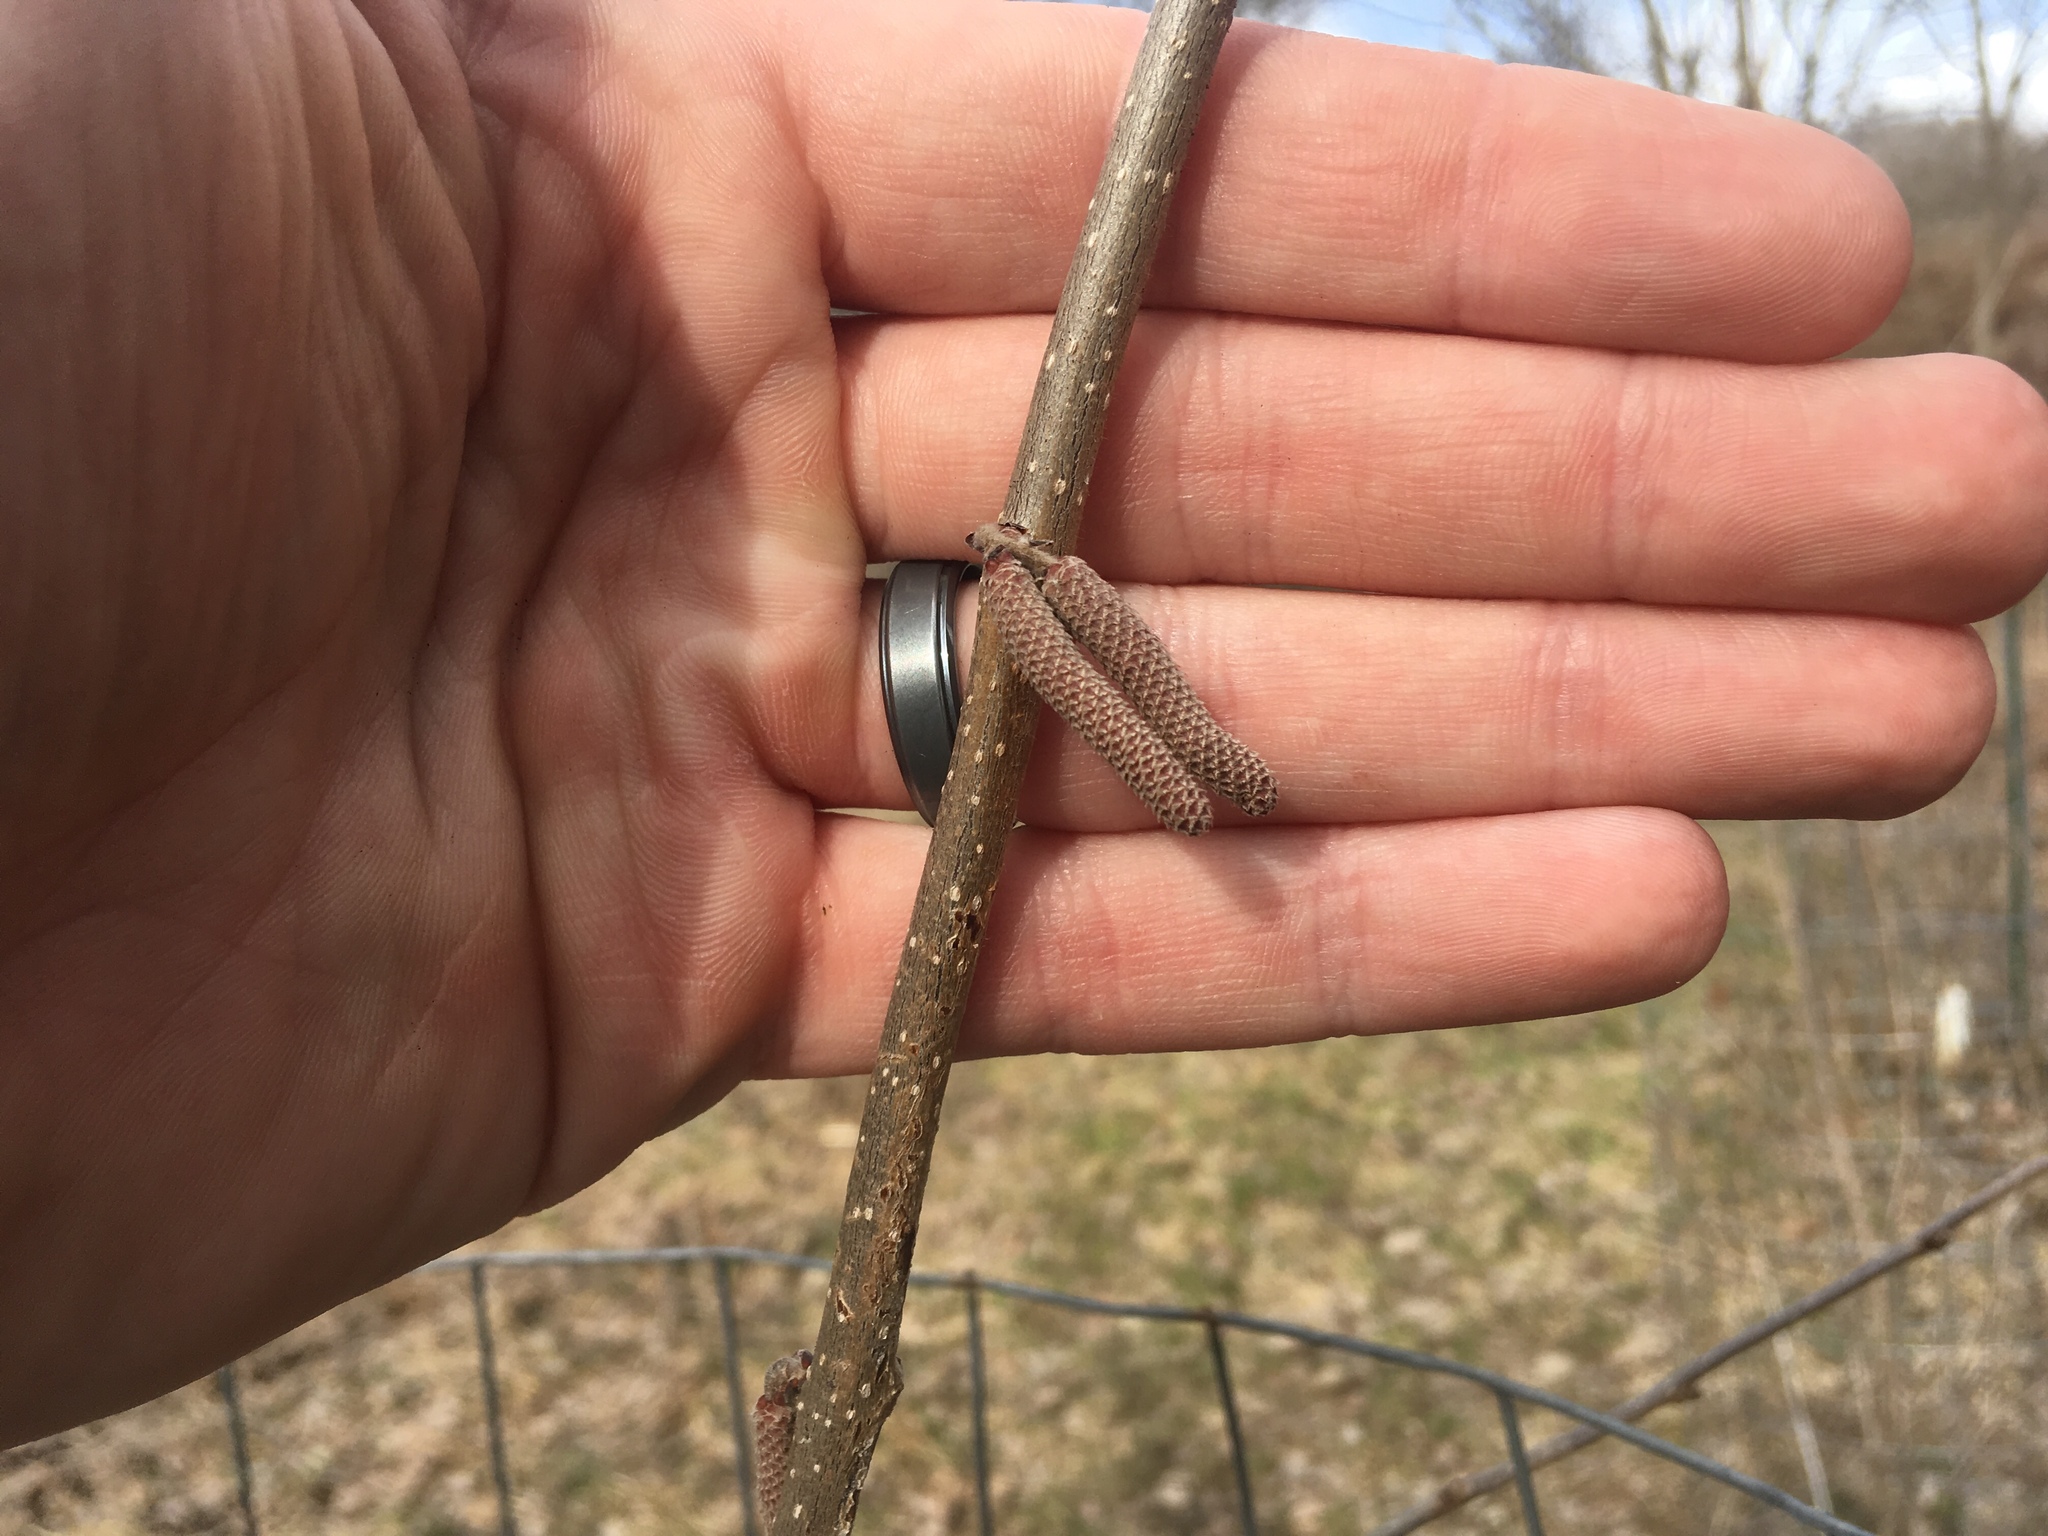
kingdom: Plantae
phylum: Tracheophyta
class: Magnoliopsida
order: Fagales
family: Betulaceae
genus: Corylus
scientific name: Corylus americana
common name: American hazel
